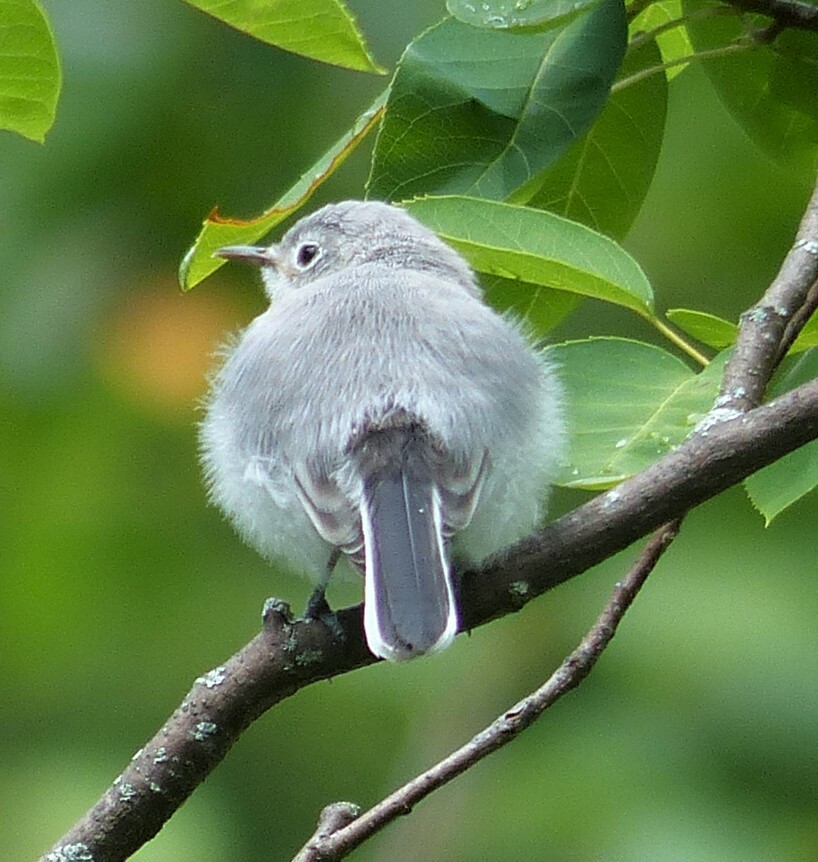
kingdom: Animalia
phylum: Chordata
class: Aves
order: Passeriformes
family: Polioptilidae
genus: Polioptila
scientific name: Polioptila caerulea
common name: Blue-gray gnatcatcher
